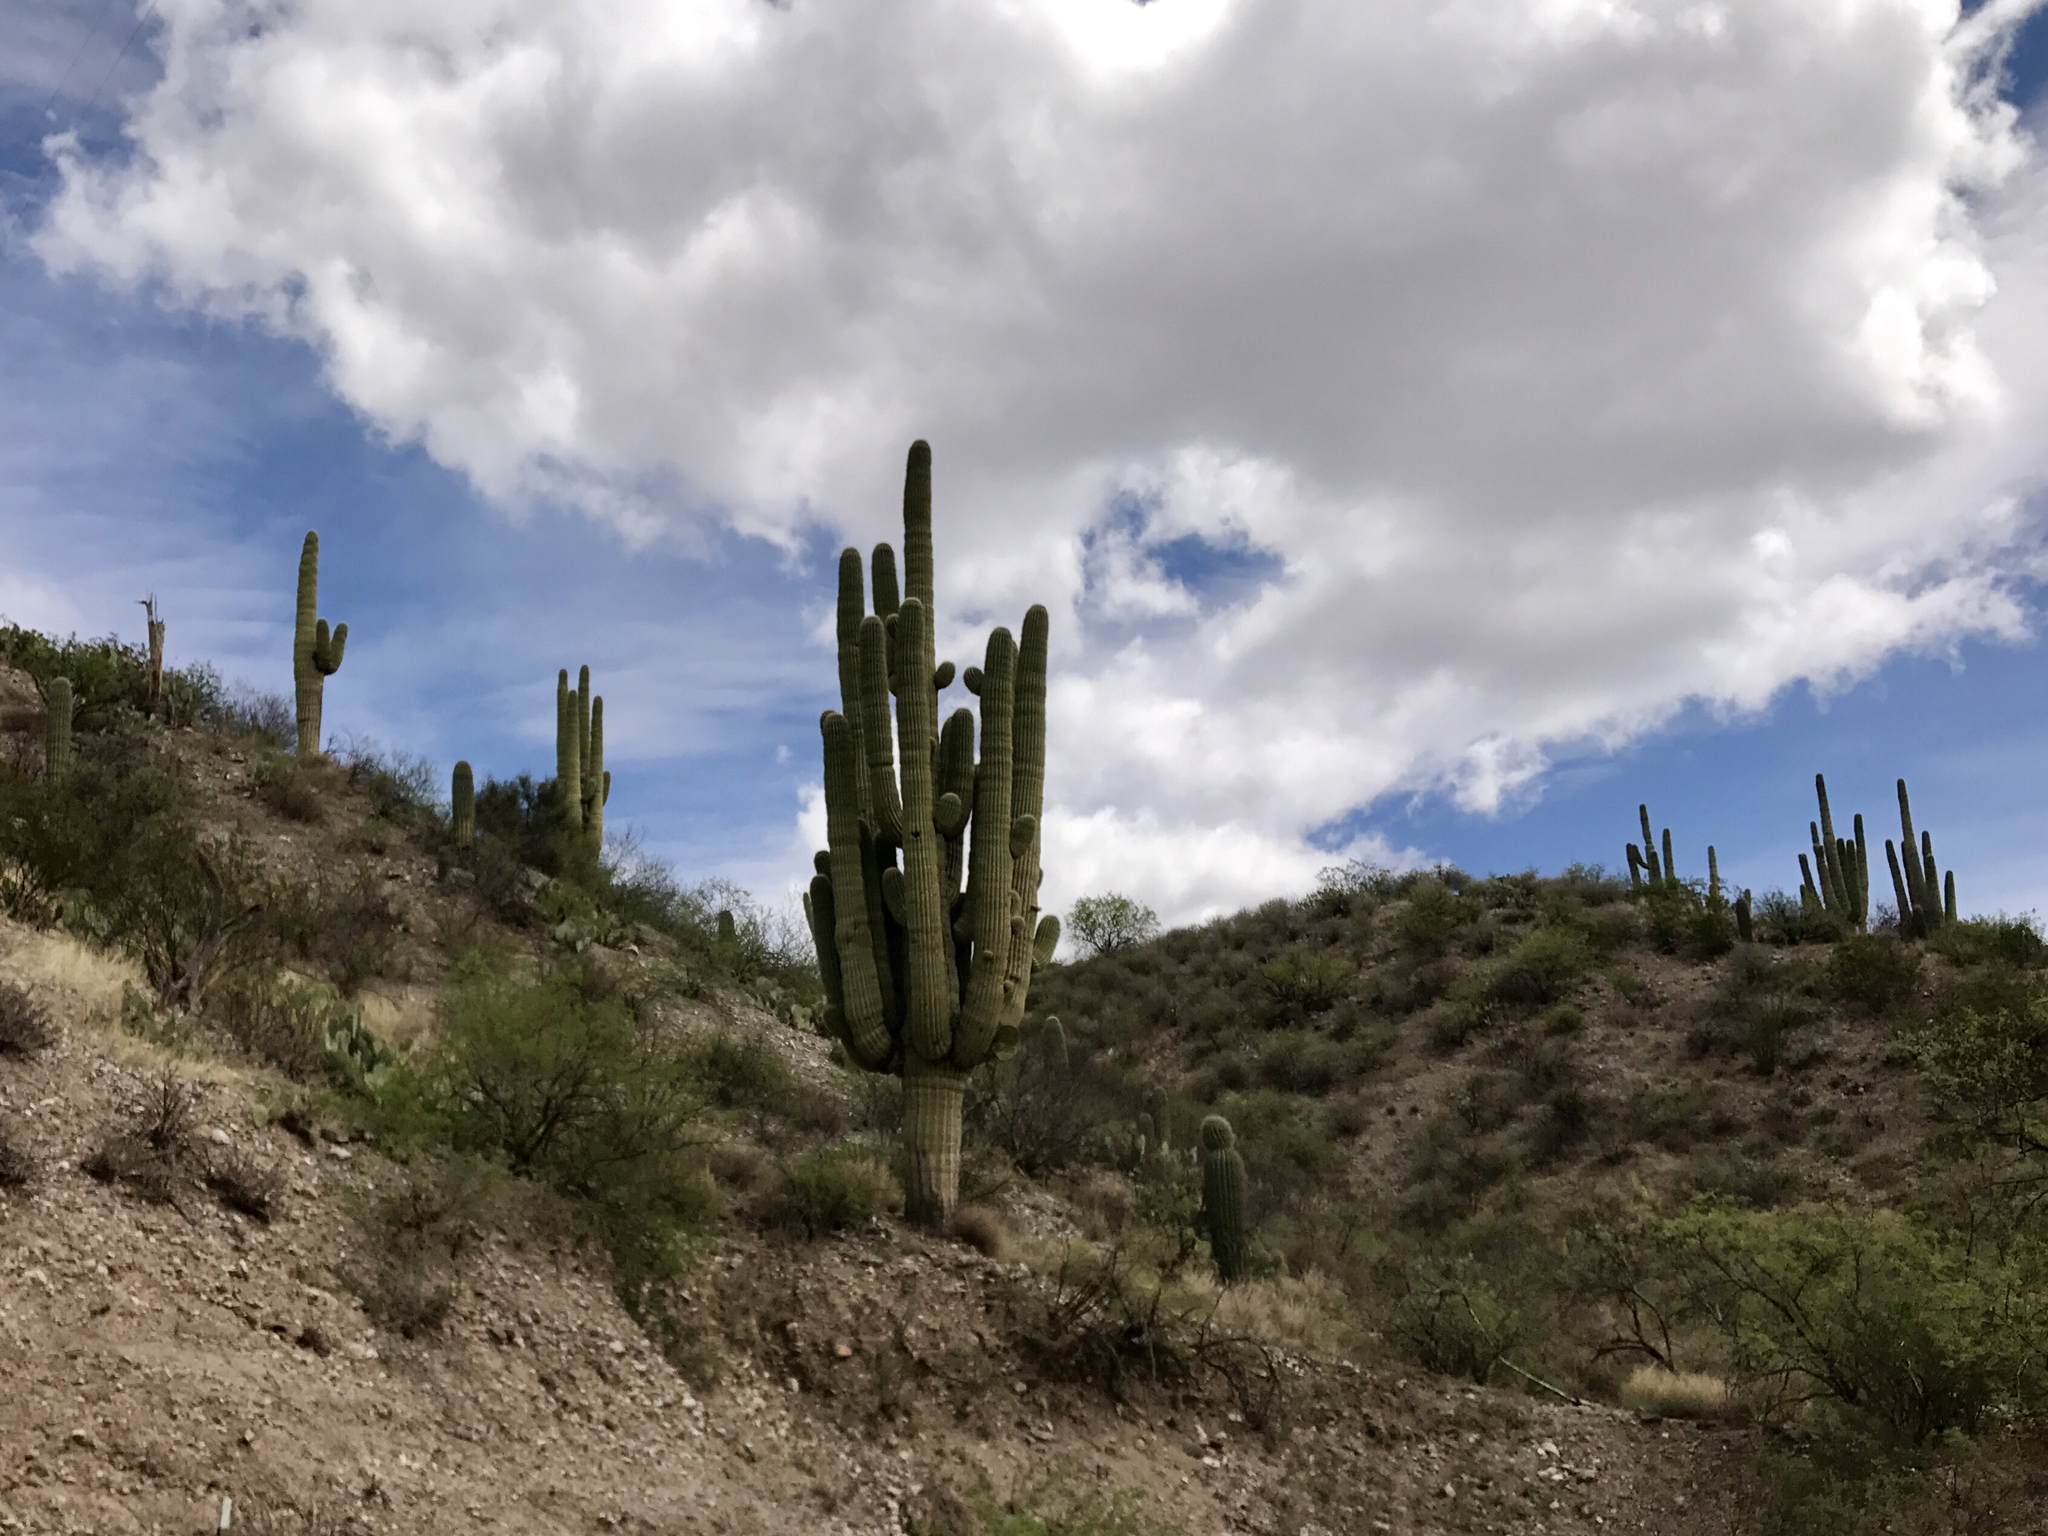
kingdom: Plantae
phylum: Tracheophyta
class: Magnoliopsida
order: Caryophyllales
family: Cactaceae
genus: Carnegiea
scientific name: Carnegiea gigantea
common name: Saguaro
